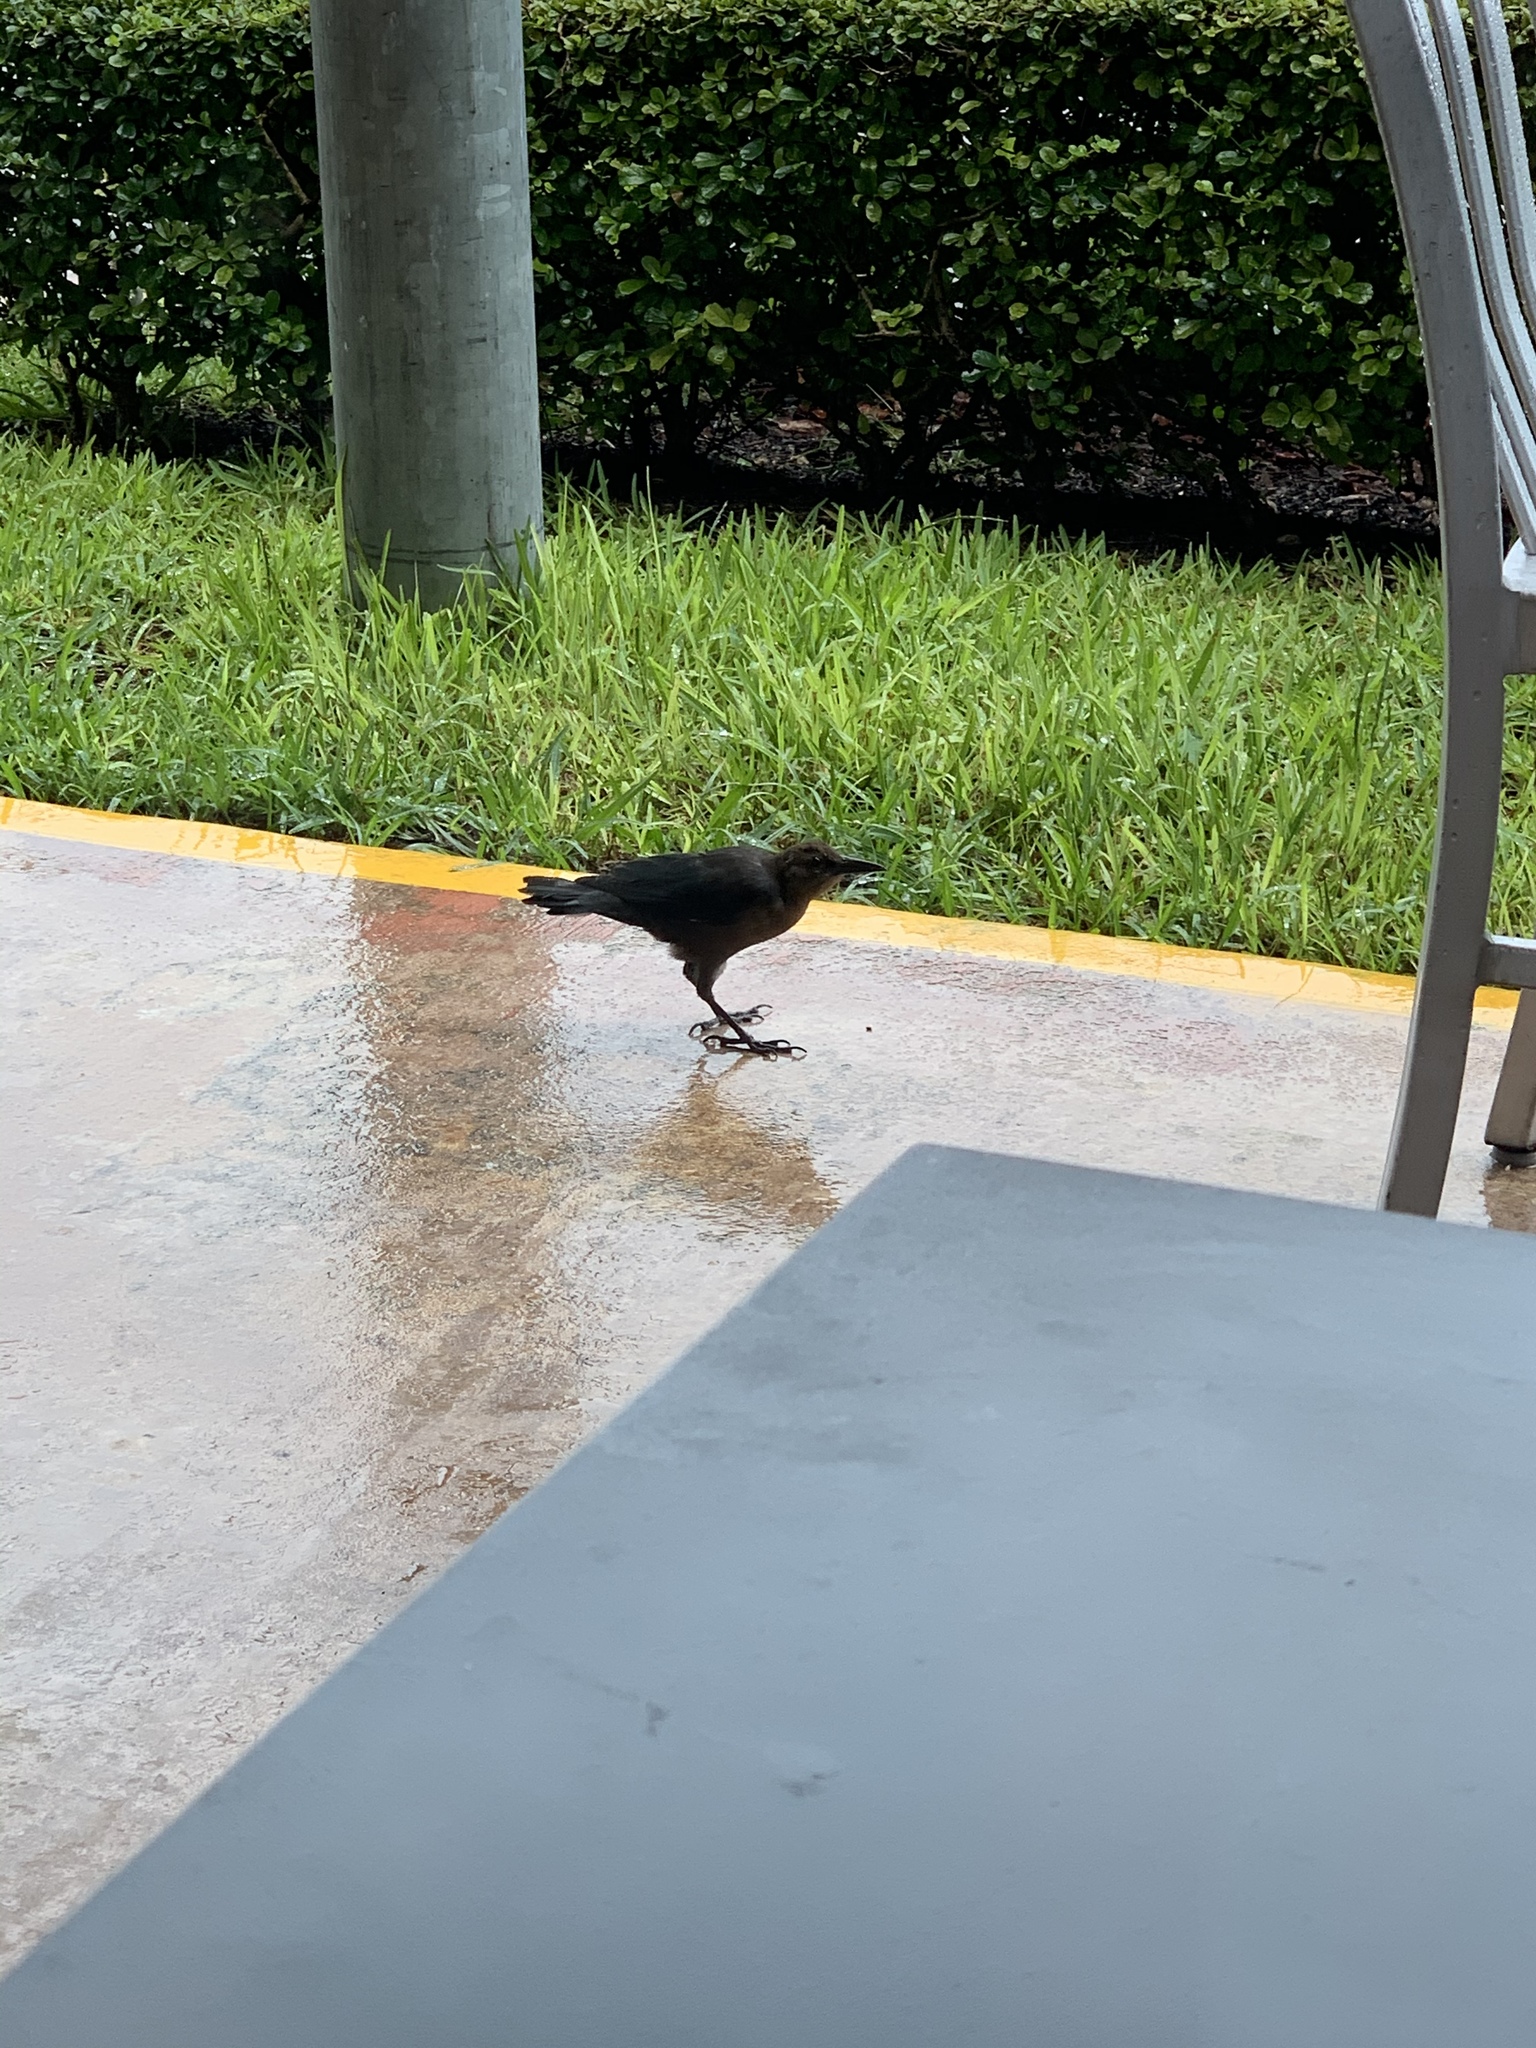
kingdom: Animalia
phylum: Chordata
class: Aves
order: Passeriformes
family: Icteridae
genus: Quiscalus
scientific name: Quiscalus major
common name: Boat-tailed grackle
